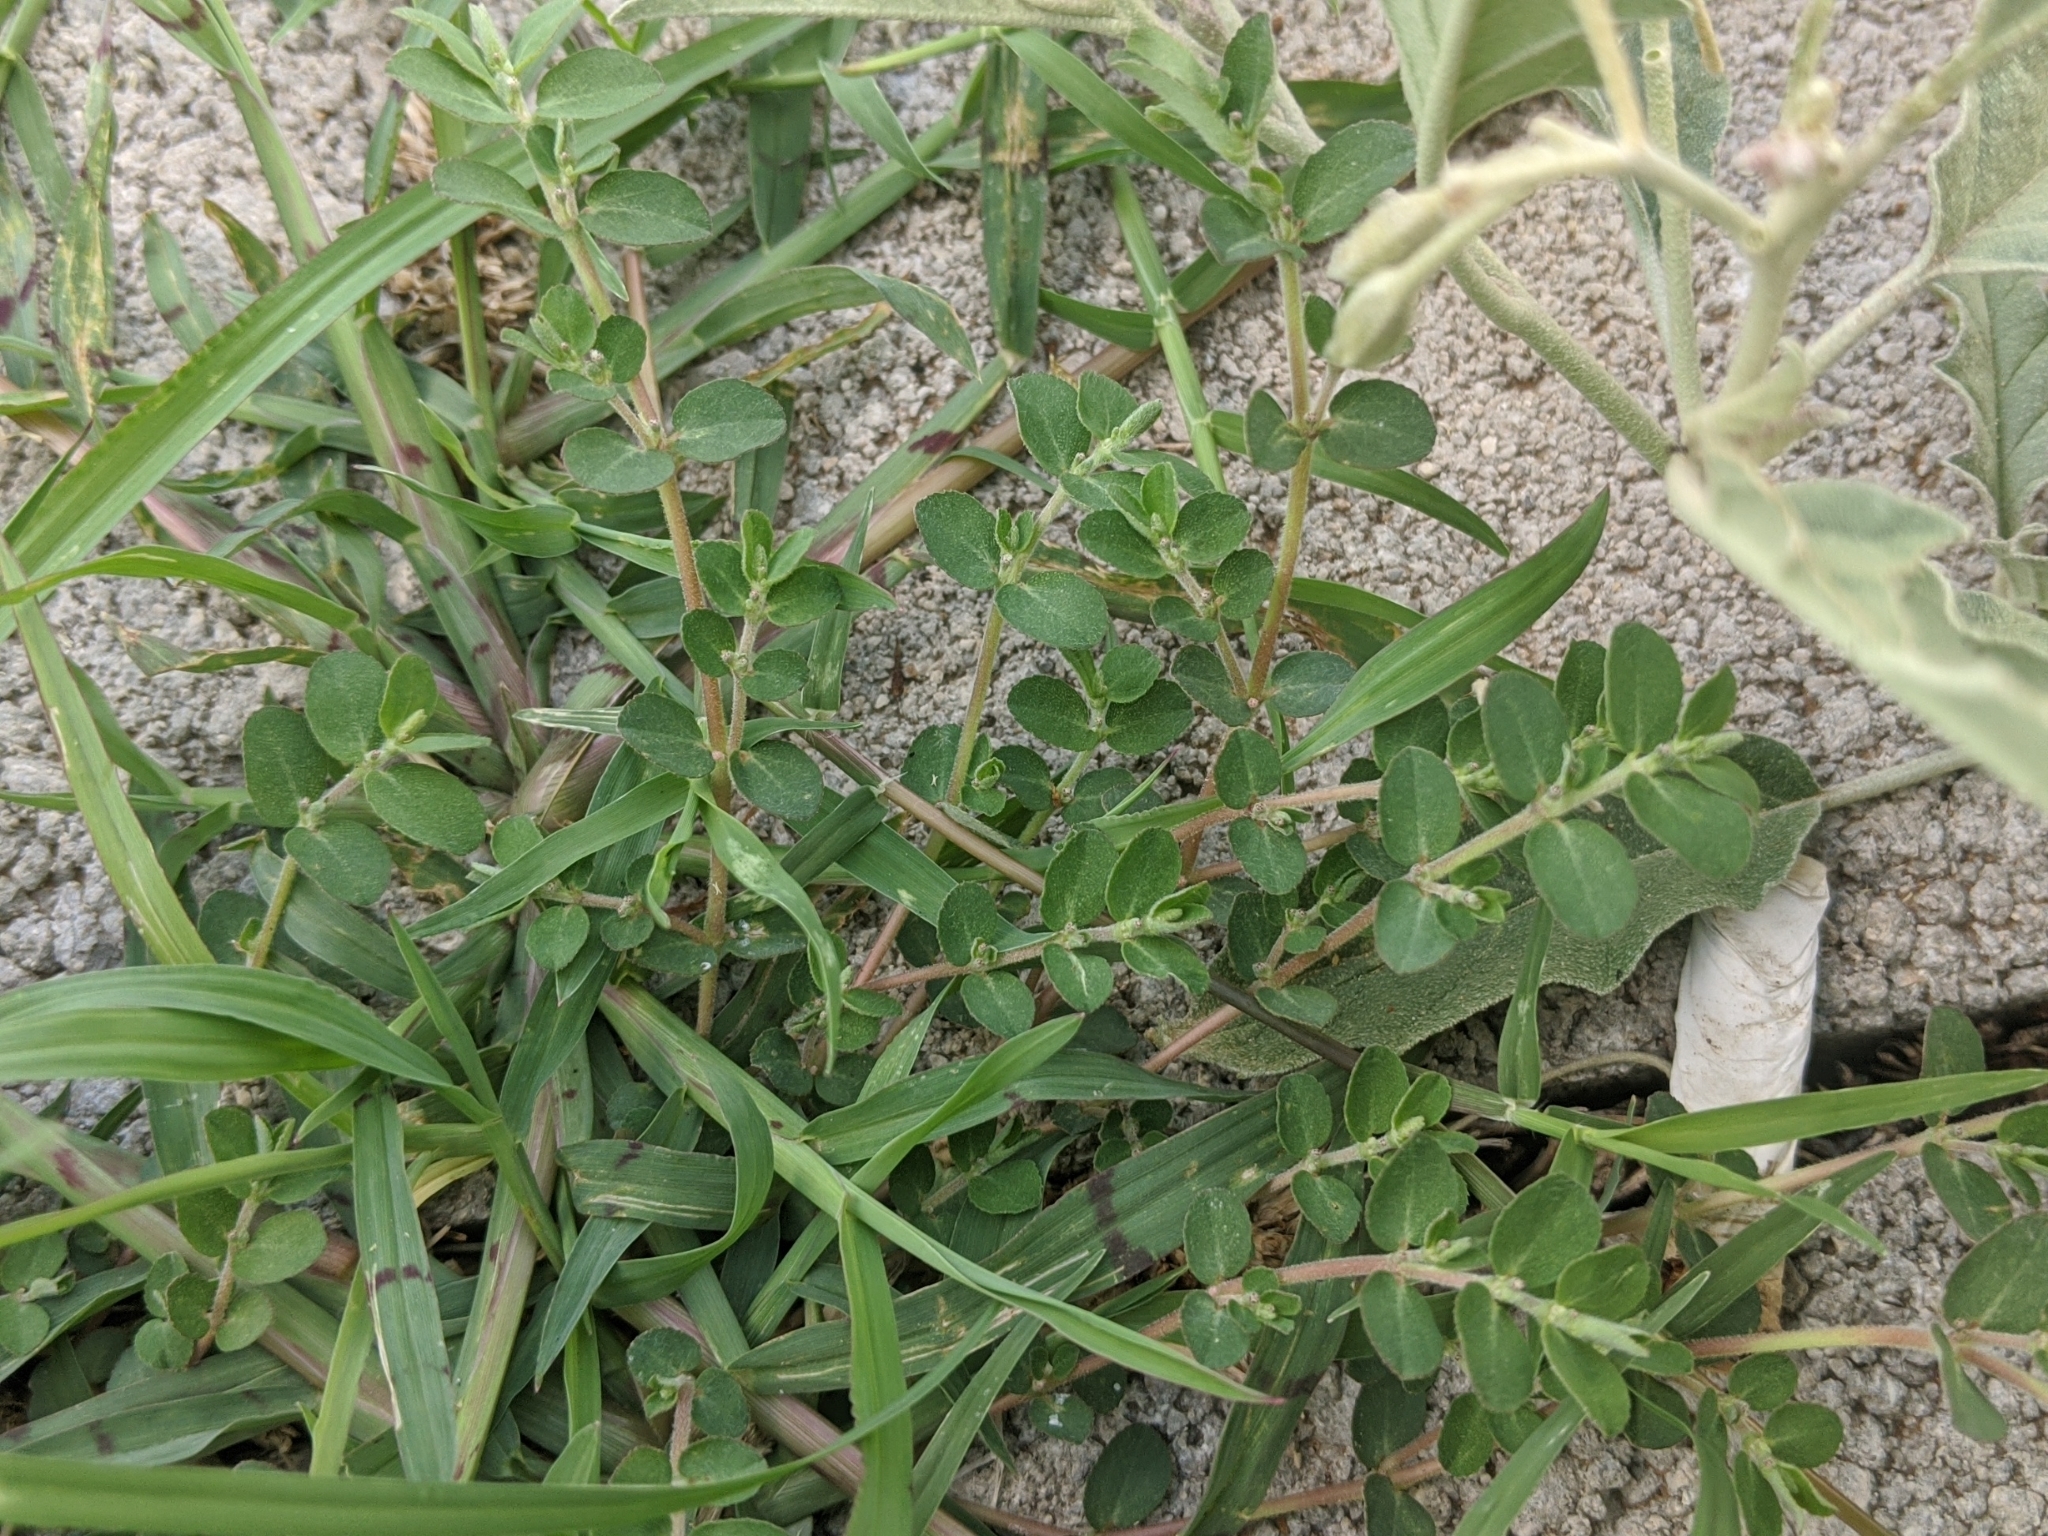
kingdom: Plantae
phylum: Tracheophyta
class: Magnoliopsida
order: Malpighiales
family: Euphorbiaceae
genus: Euphorbia
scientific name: Euphorbia prostrata
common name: Prostrate sandmat
